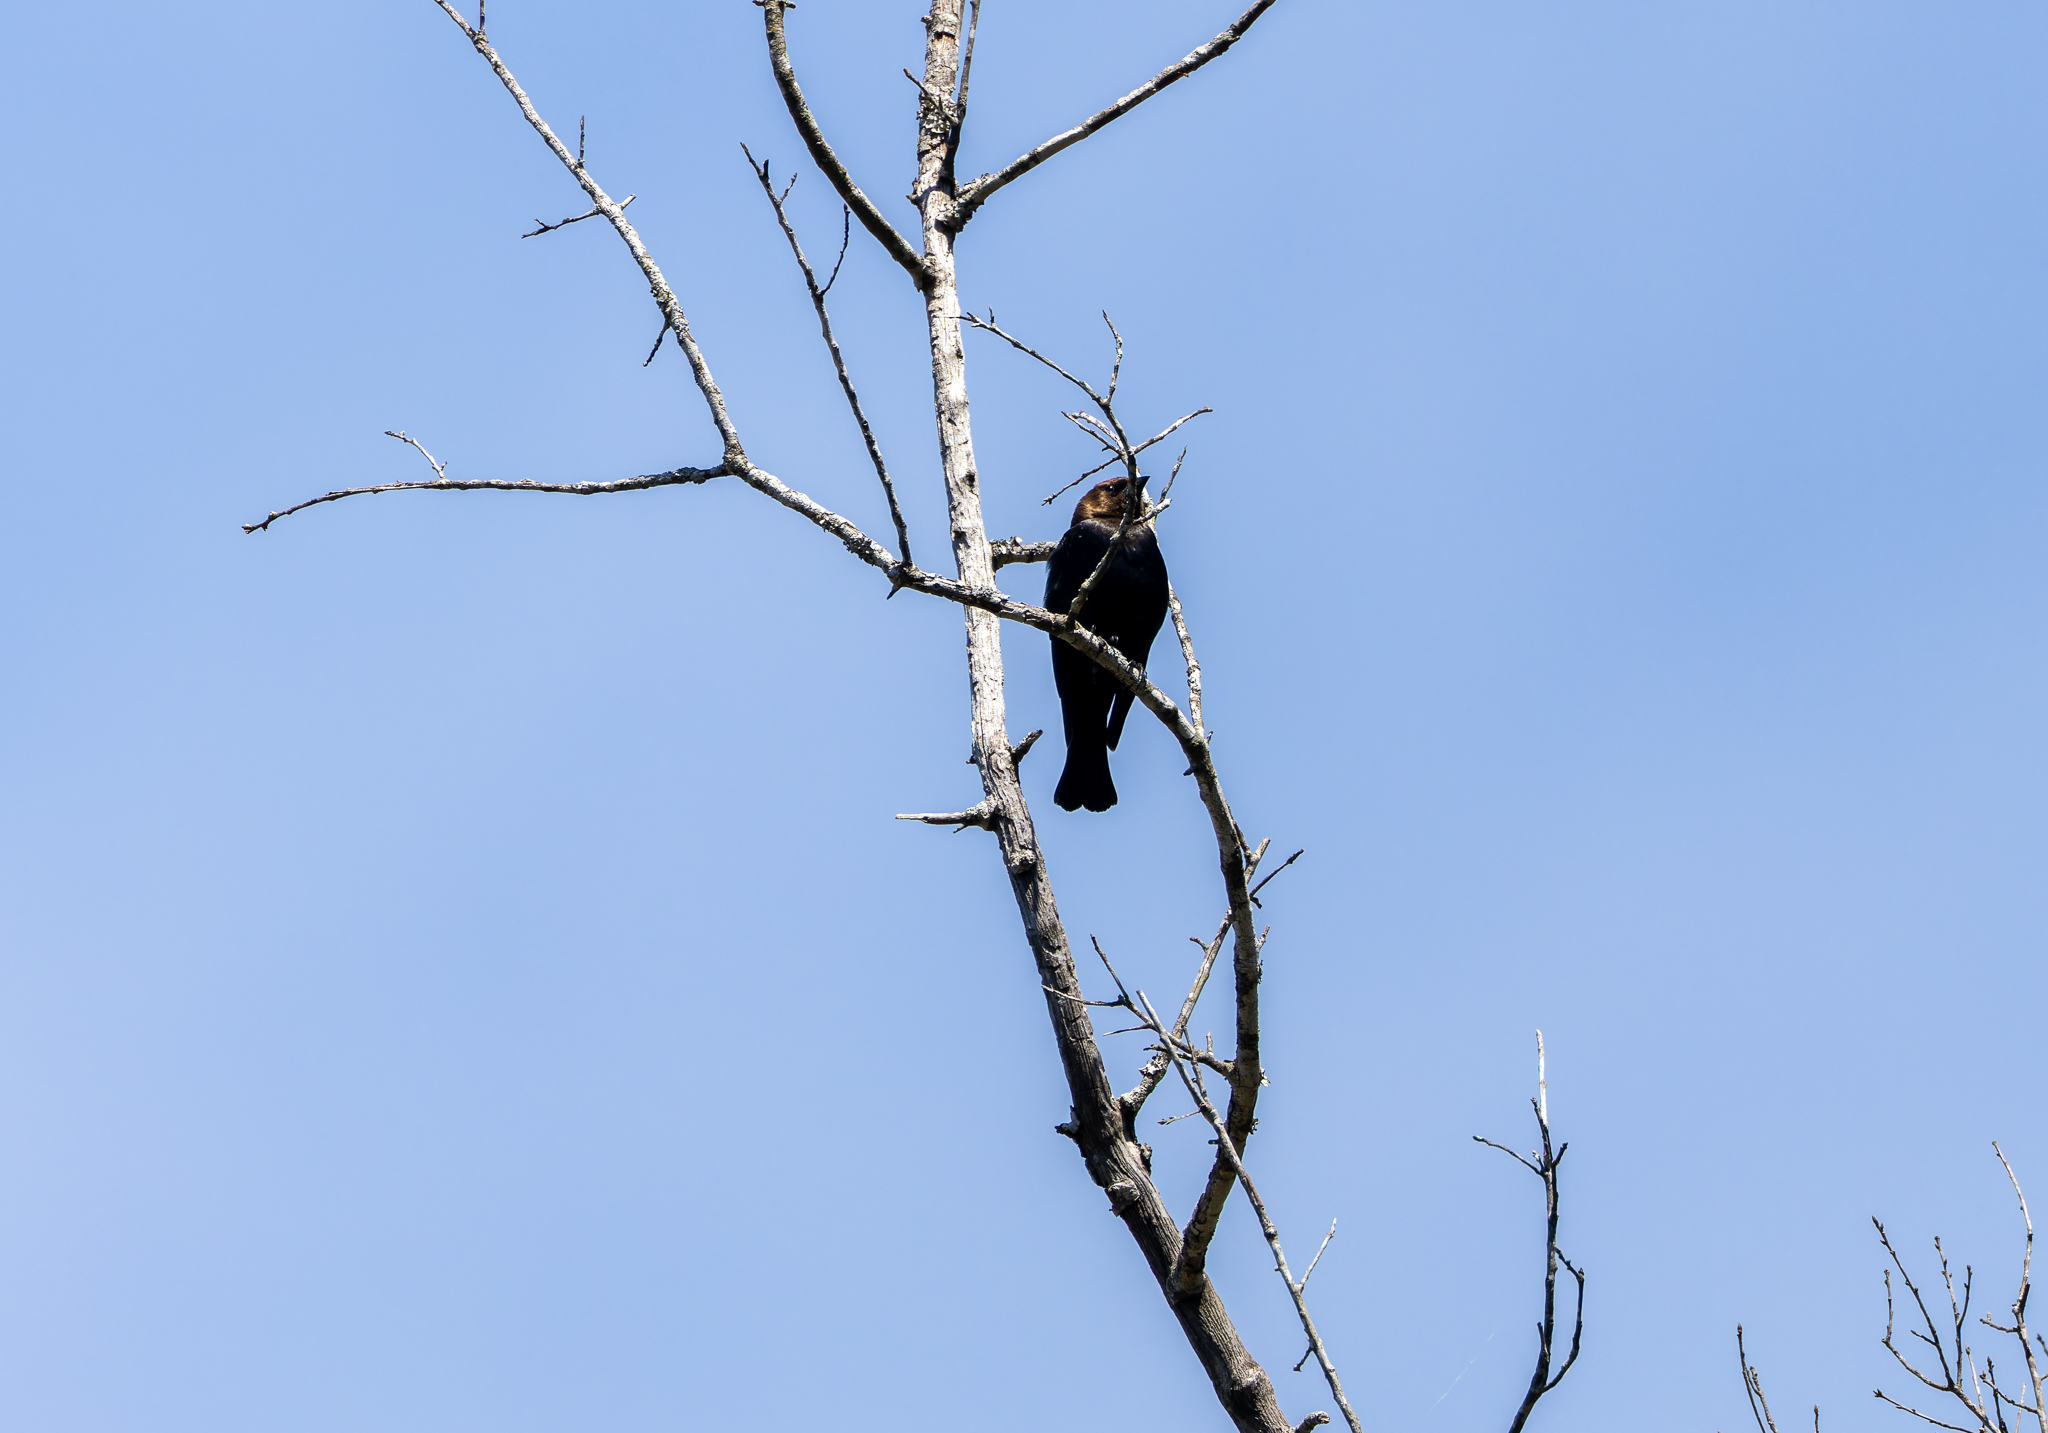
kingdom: Animalia
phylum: Chordata
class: Aves
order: Passeriformes
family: Icteridae
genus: Molothrus
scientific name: Molothrus ater
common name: Brown-headed cowbird
